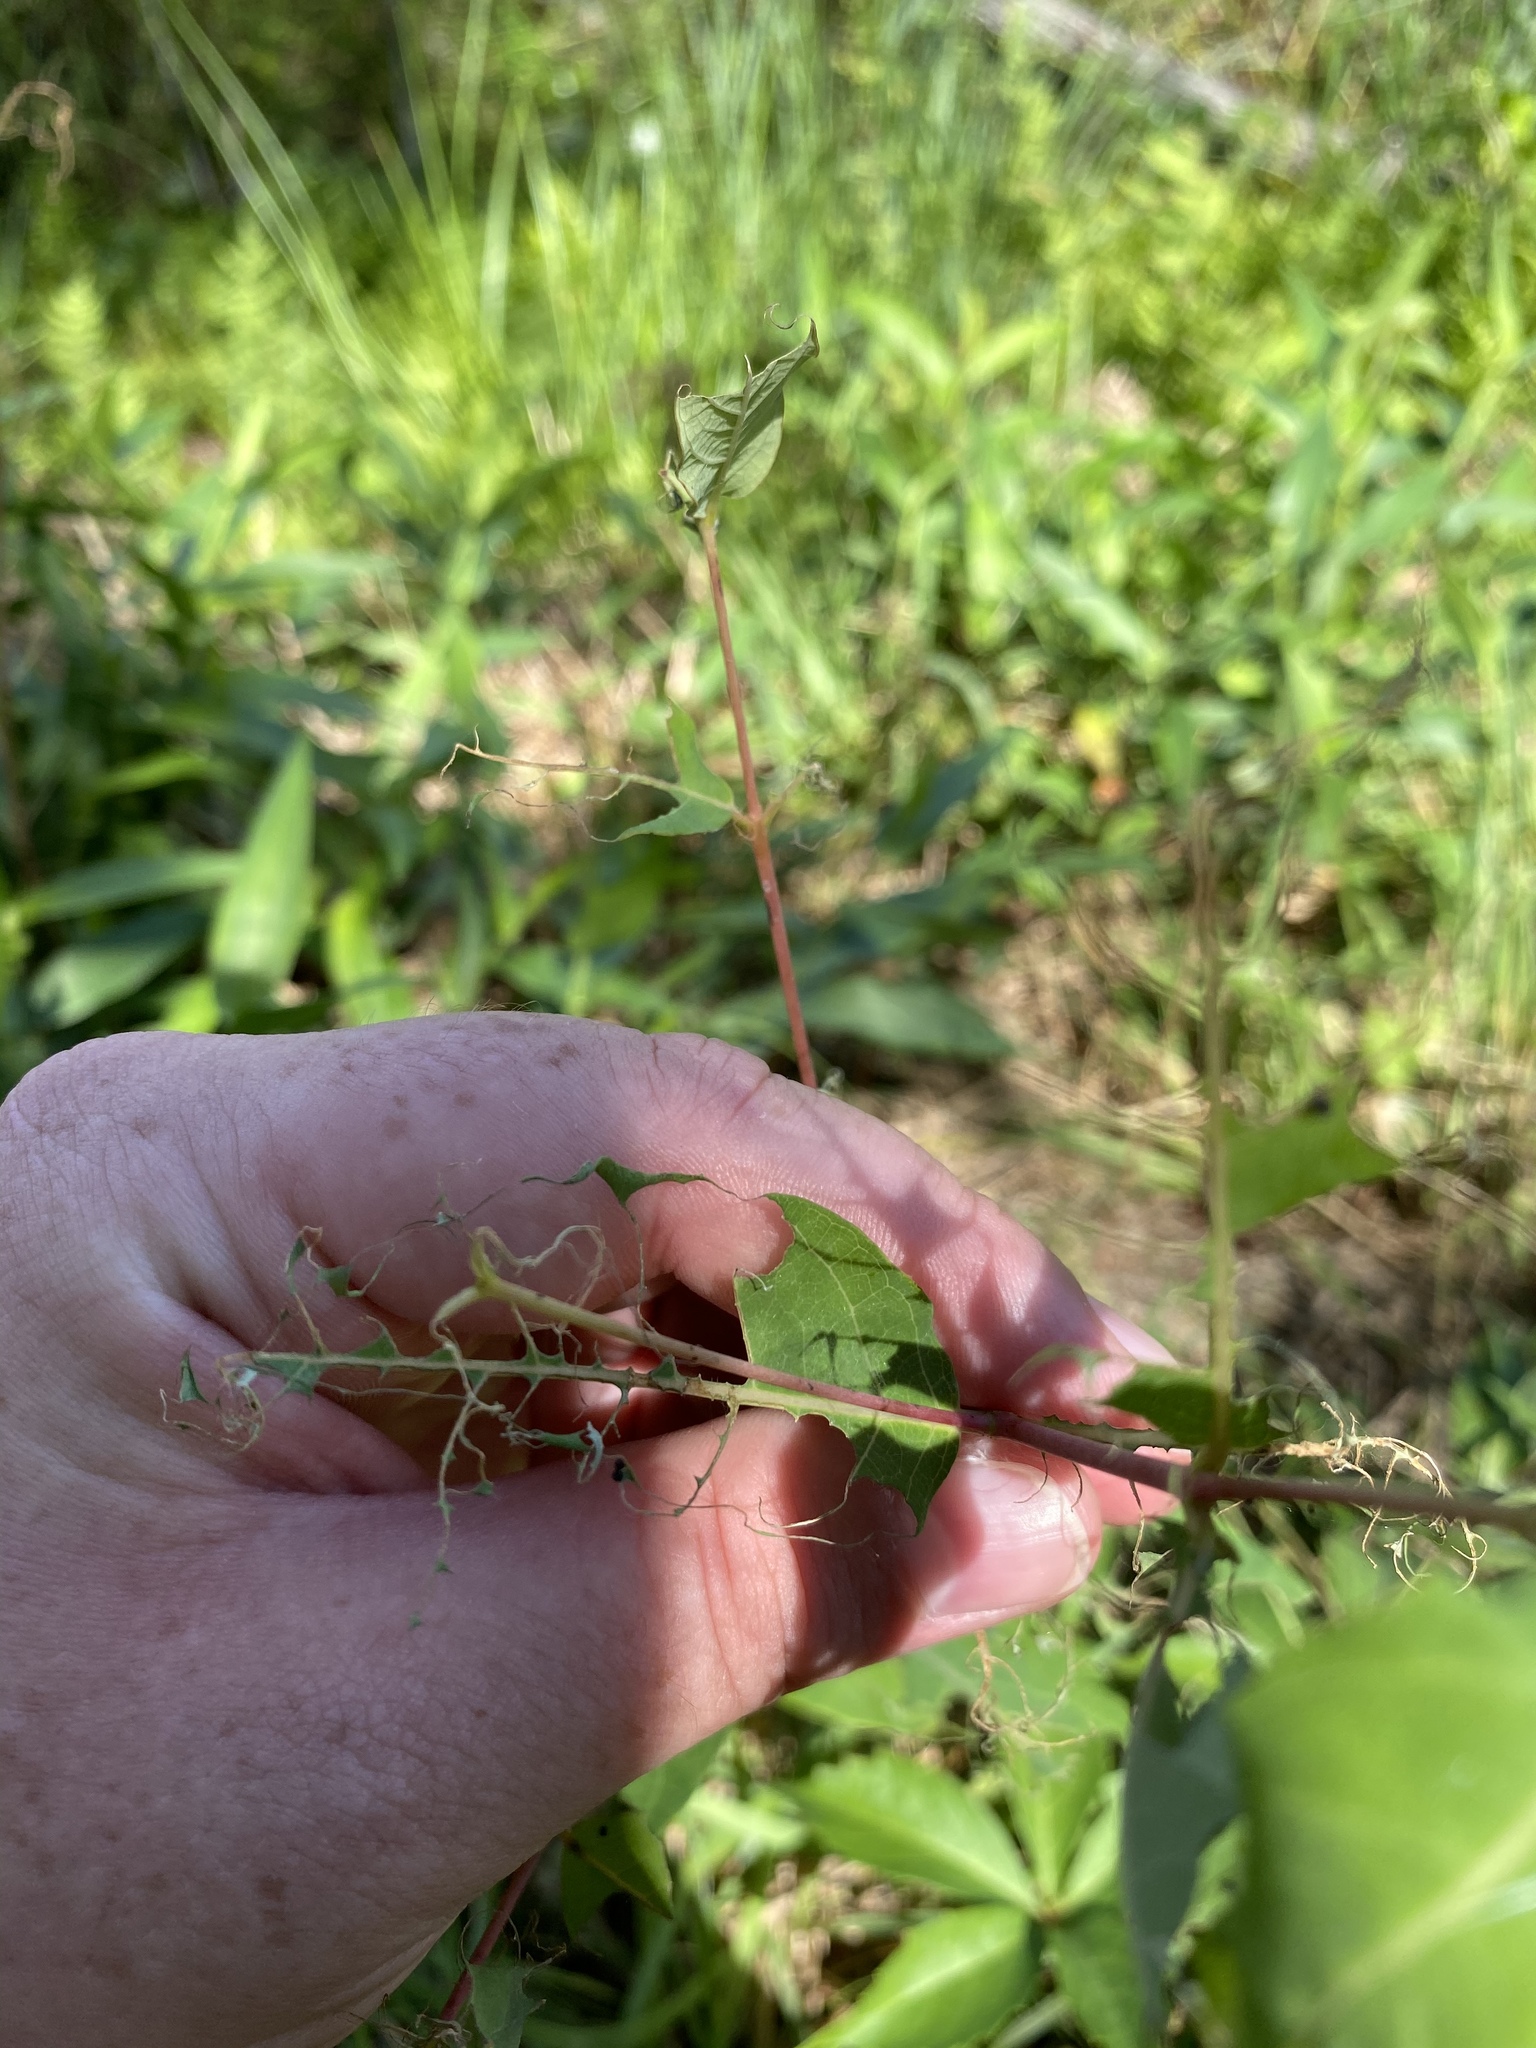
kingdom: Plantae
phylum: Tracheophyta
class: Magnoliopsida
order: Gentianales
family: Apocynaceae
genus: Asclepias
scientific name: Asclepias amplexicaulis
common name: Blunt-leaf milkweed
